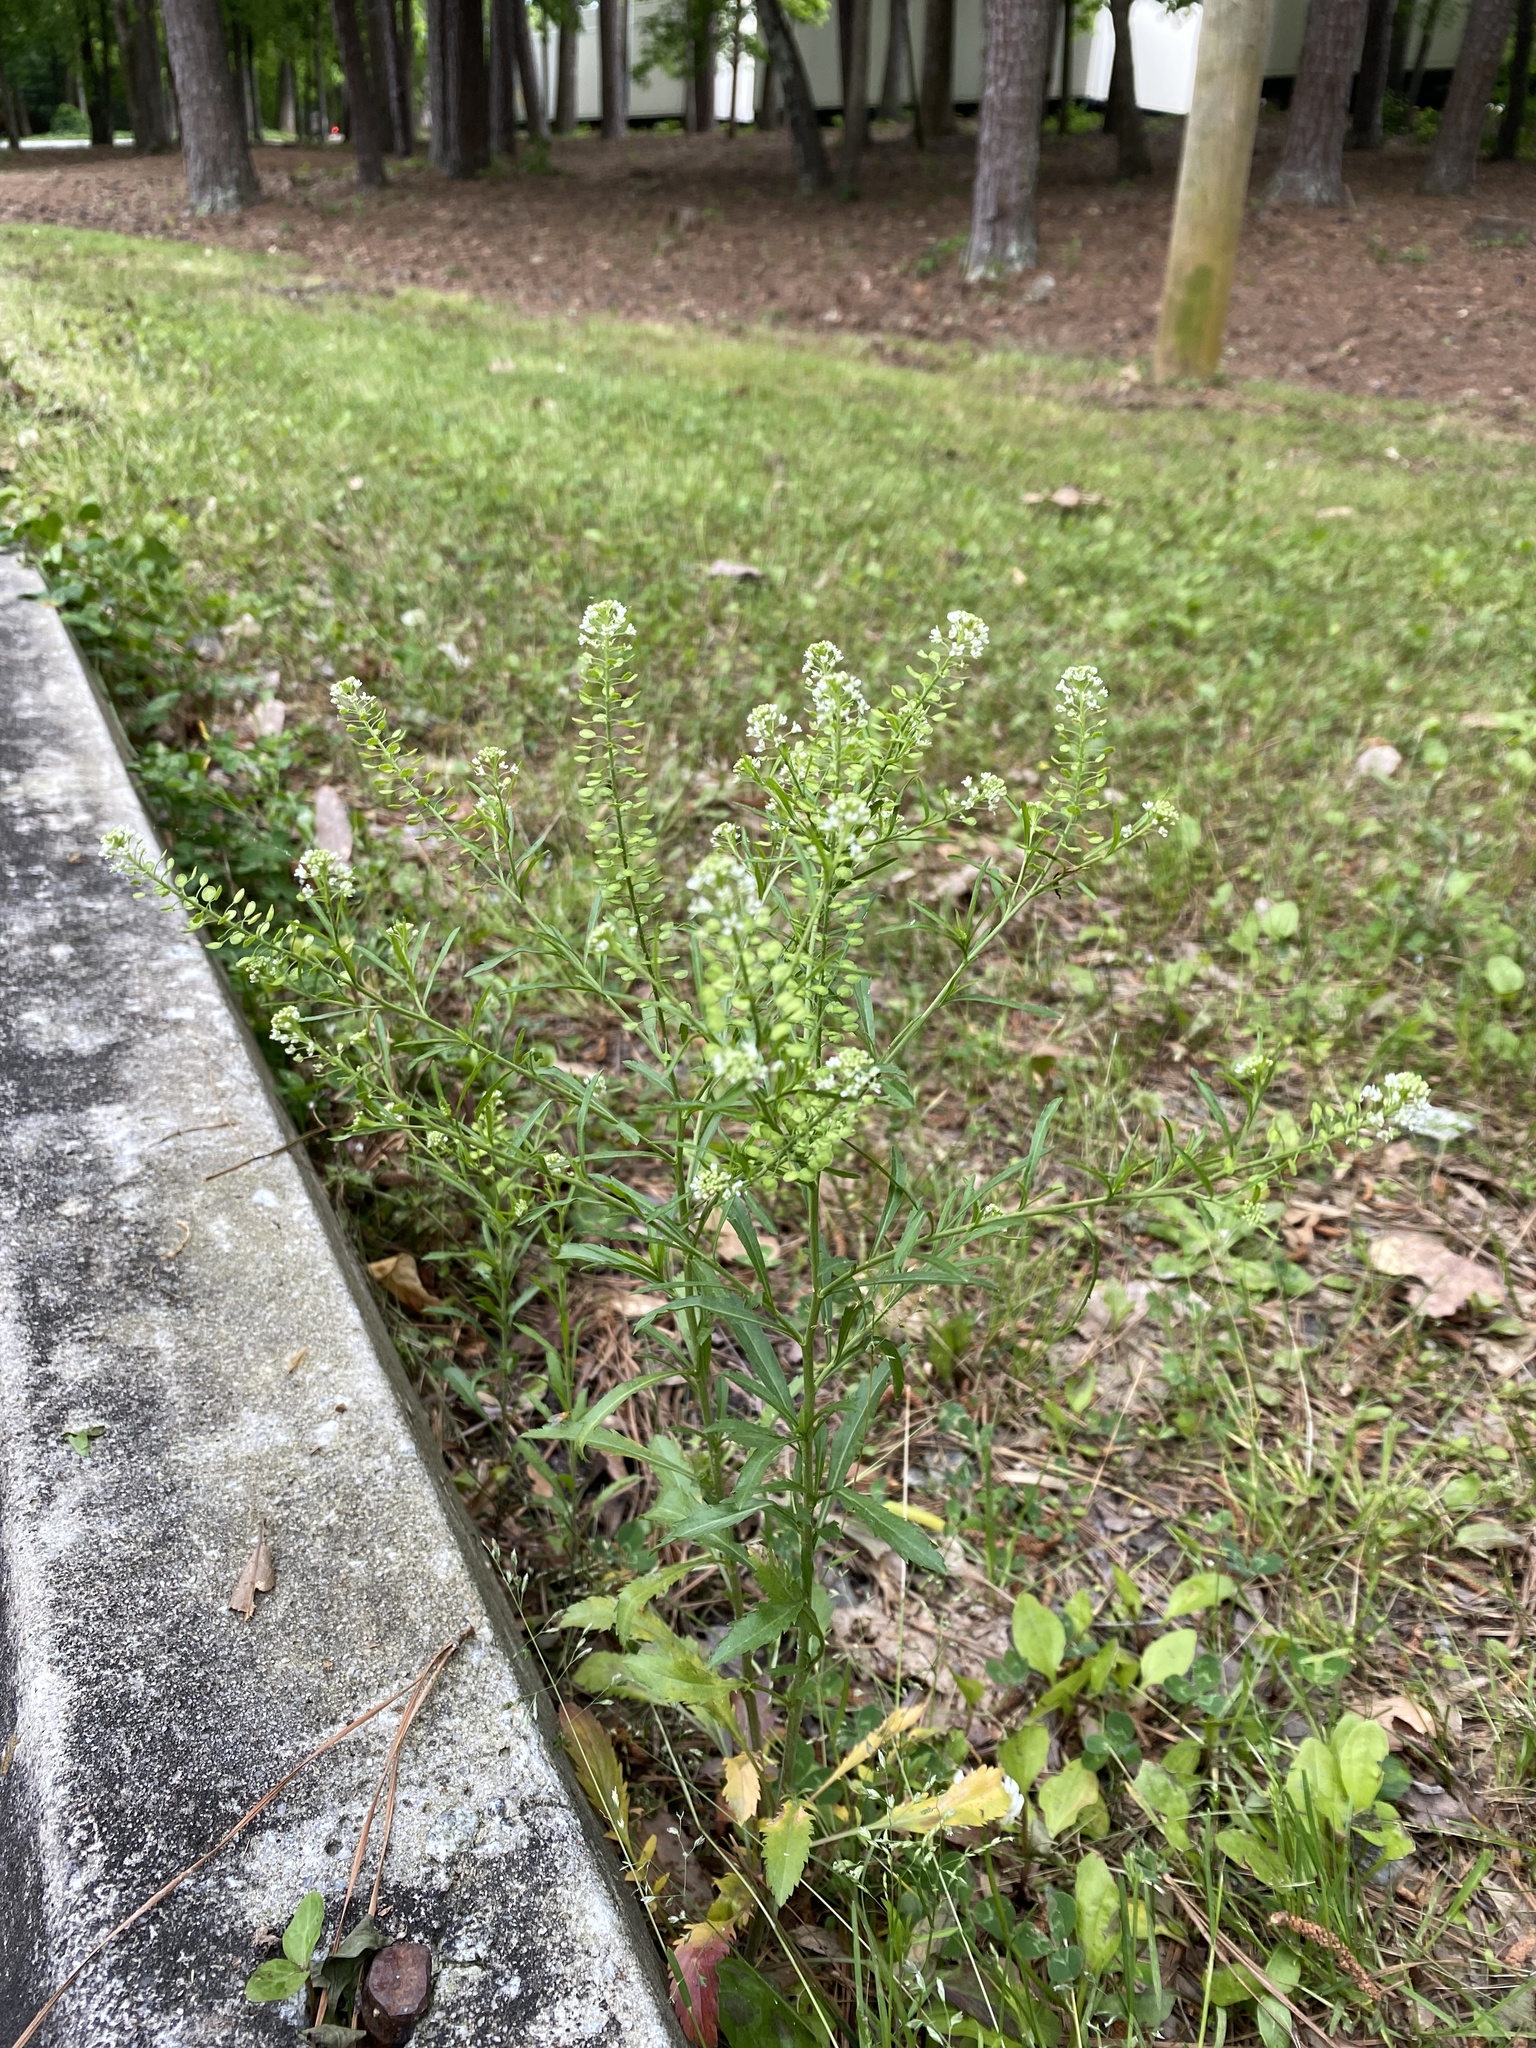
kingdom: Plantae
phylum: Tracheophyta
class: Magnoliopsida
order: Brassicales
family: Brassicaceae
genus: Lepidium
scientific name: Lepidium virginicum
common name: Least pepperwort
